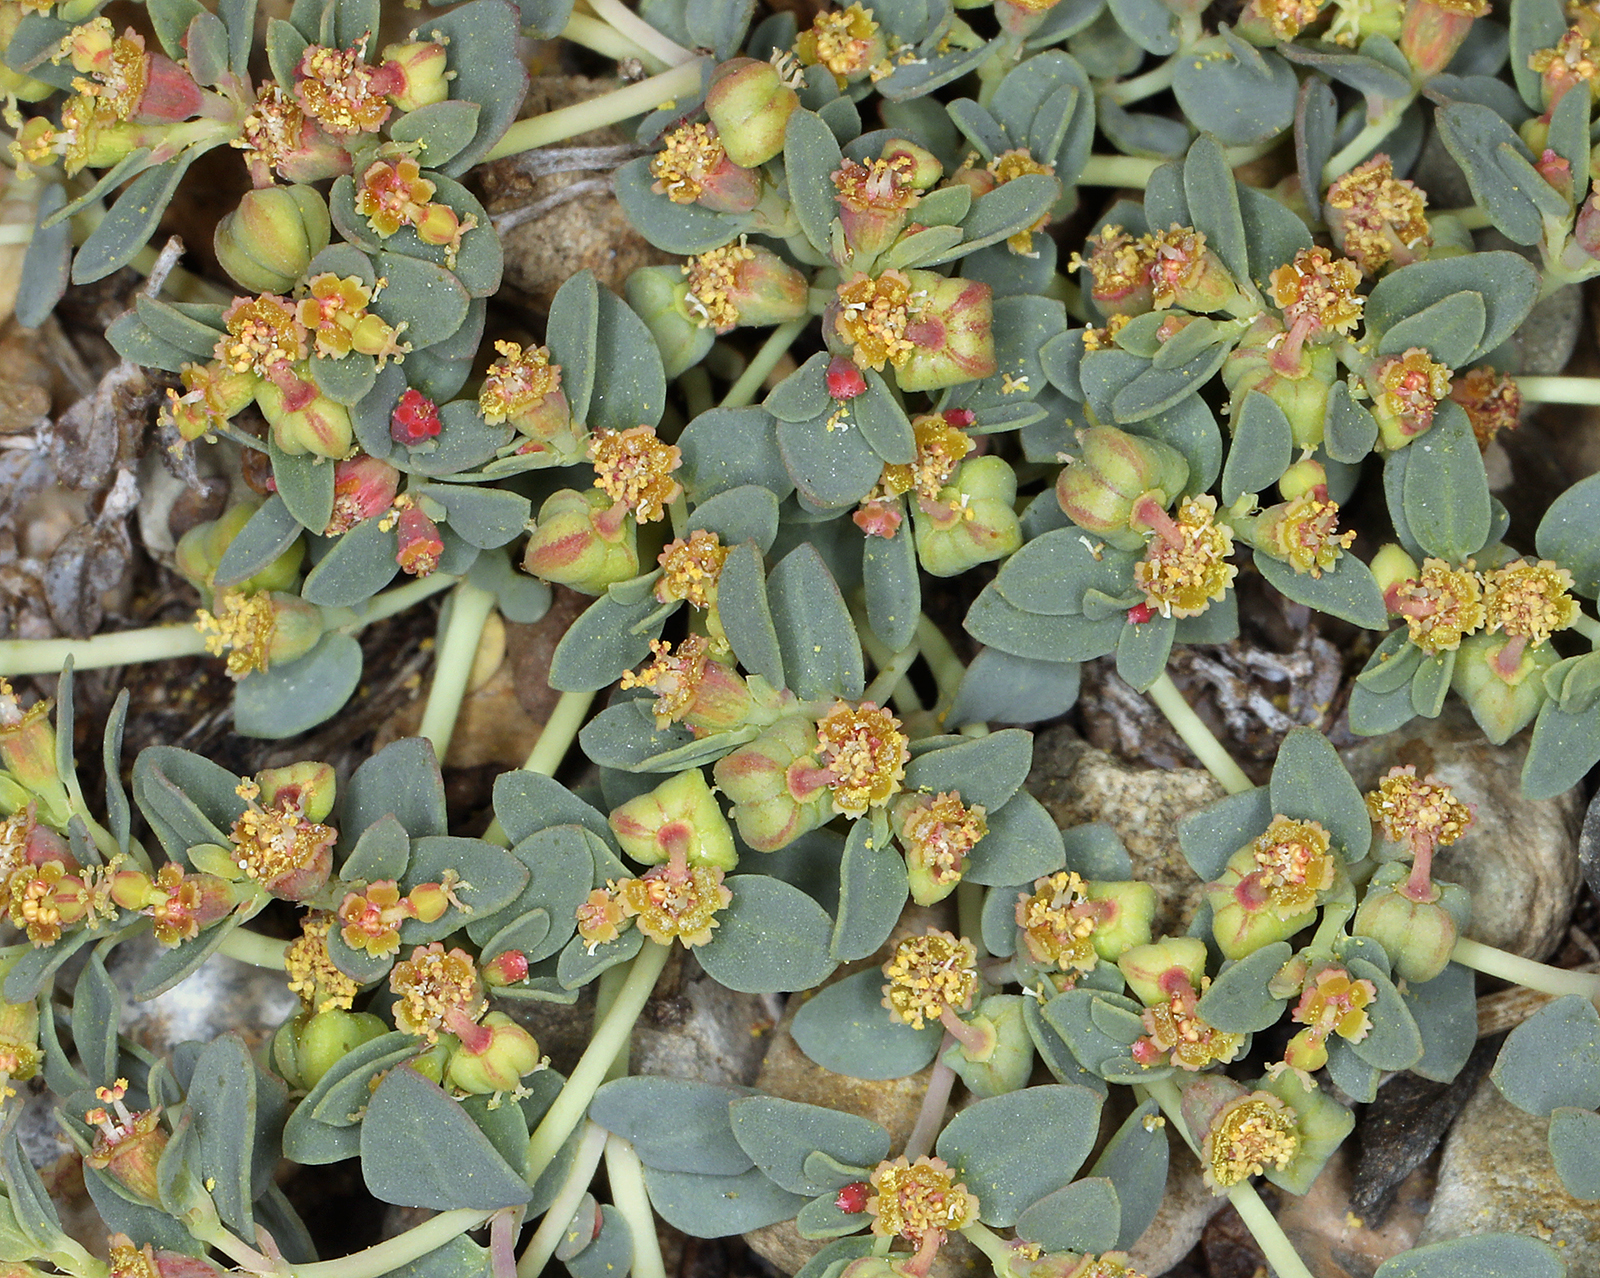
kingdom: Plantae
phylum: Tracheophyta
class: Magnoliopsida
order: Malpighiales
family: Euphorbiaceae
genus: Euphorbia
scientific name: Euphorbia fendleri
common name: Fendler's euphorbia
